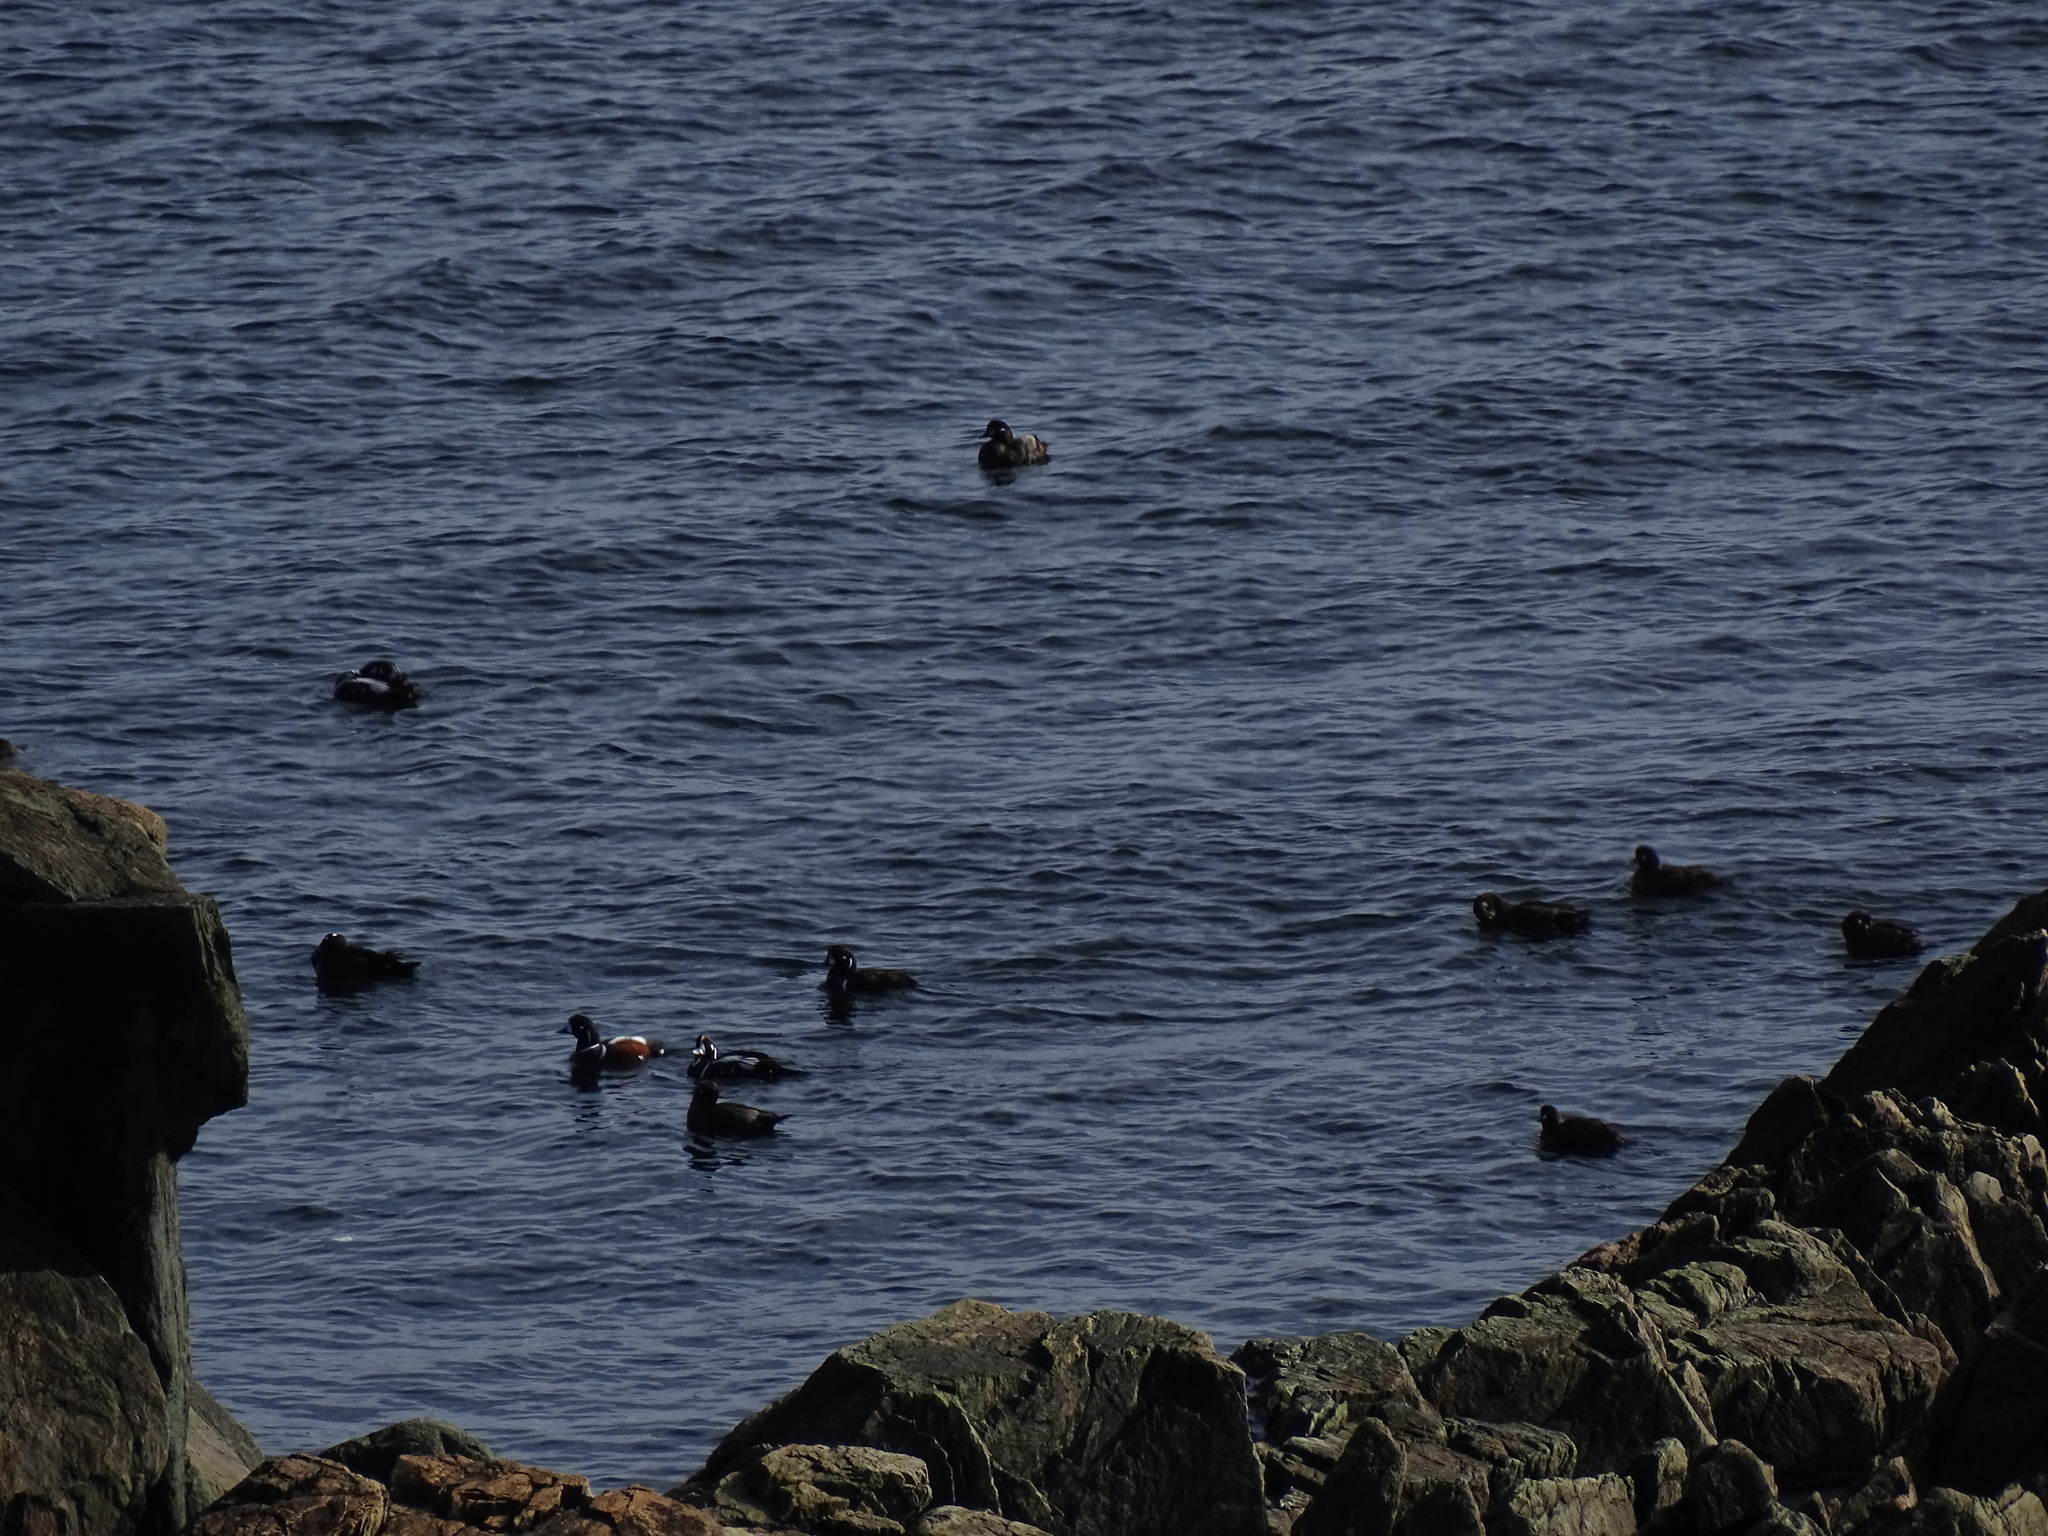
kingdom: Animalia
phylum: Chordata
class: Aves
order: Anseriformes
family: Anatidae
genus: Histrionicus
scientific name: Histrionicus histrionicus
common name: Harlequin duck
